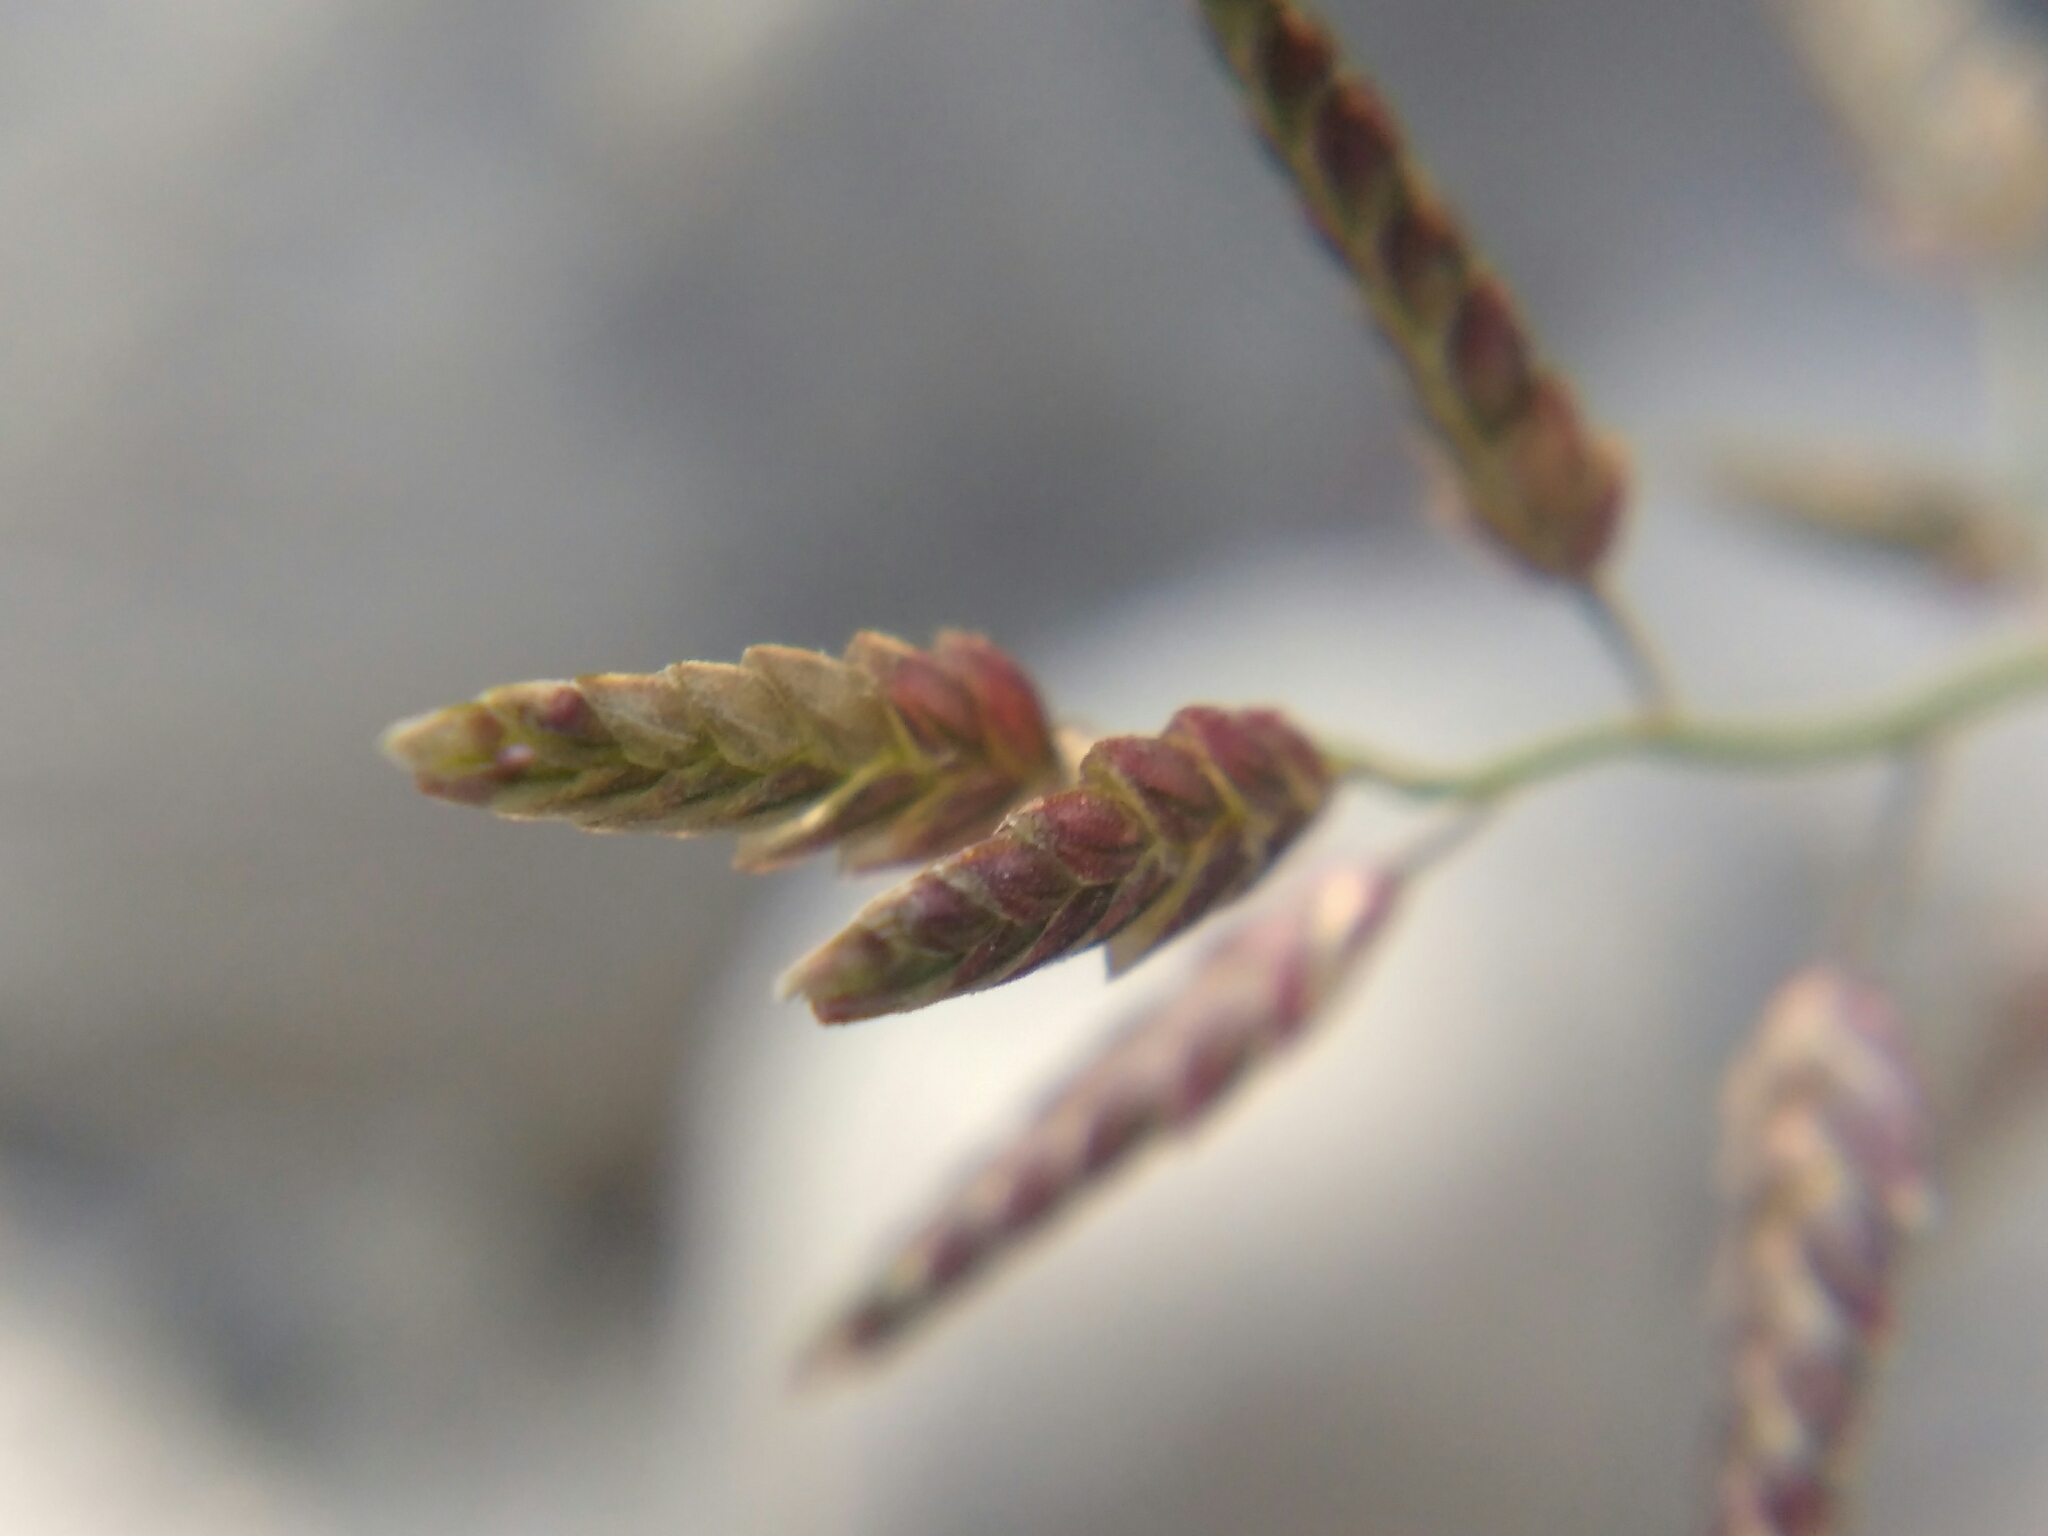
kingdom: Plantae
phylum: Tracheophyta
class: Liliopsida
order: Poales
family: Poaceae
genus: Eragrostis
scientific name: Eragrostis minor
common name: Small love-grass
